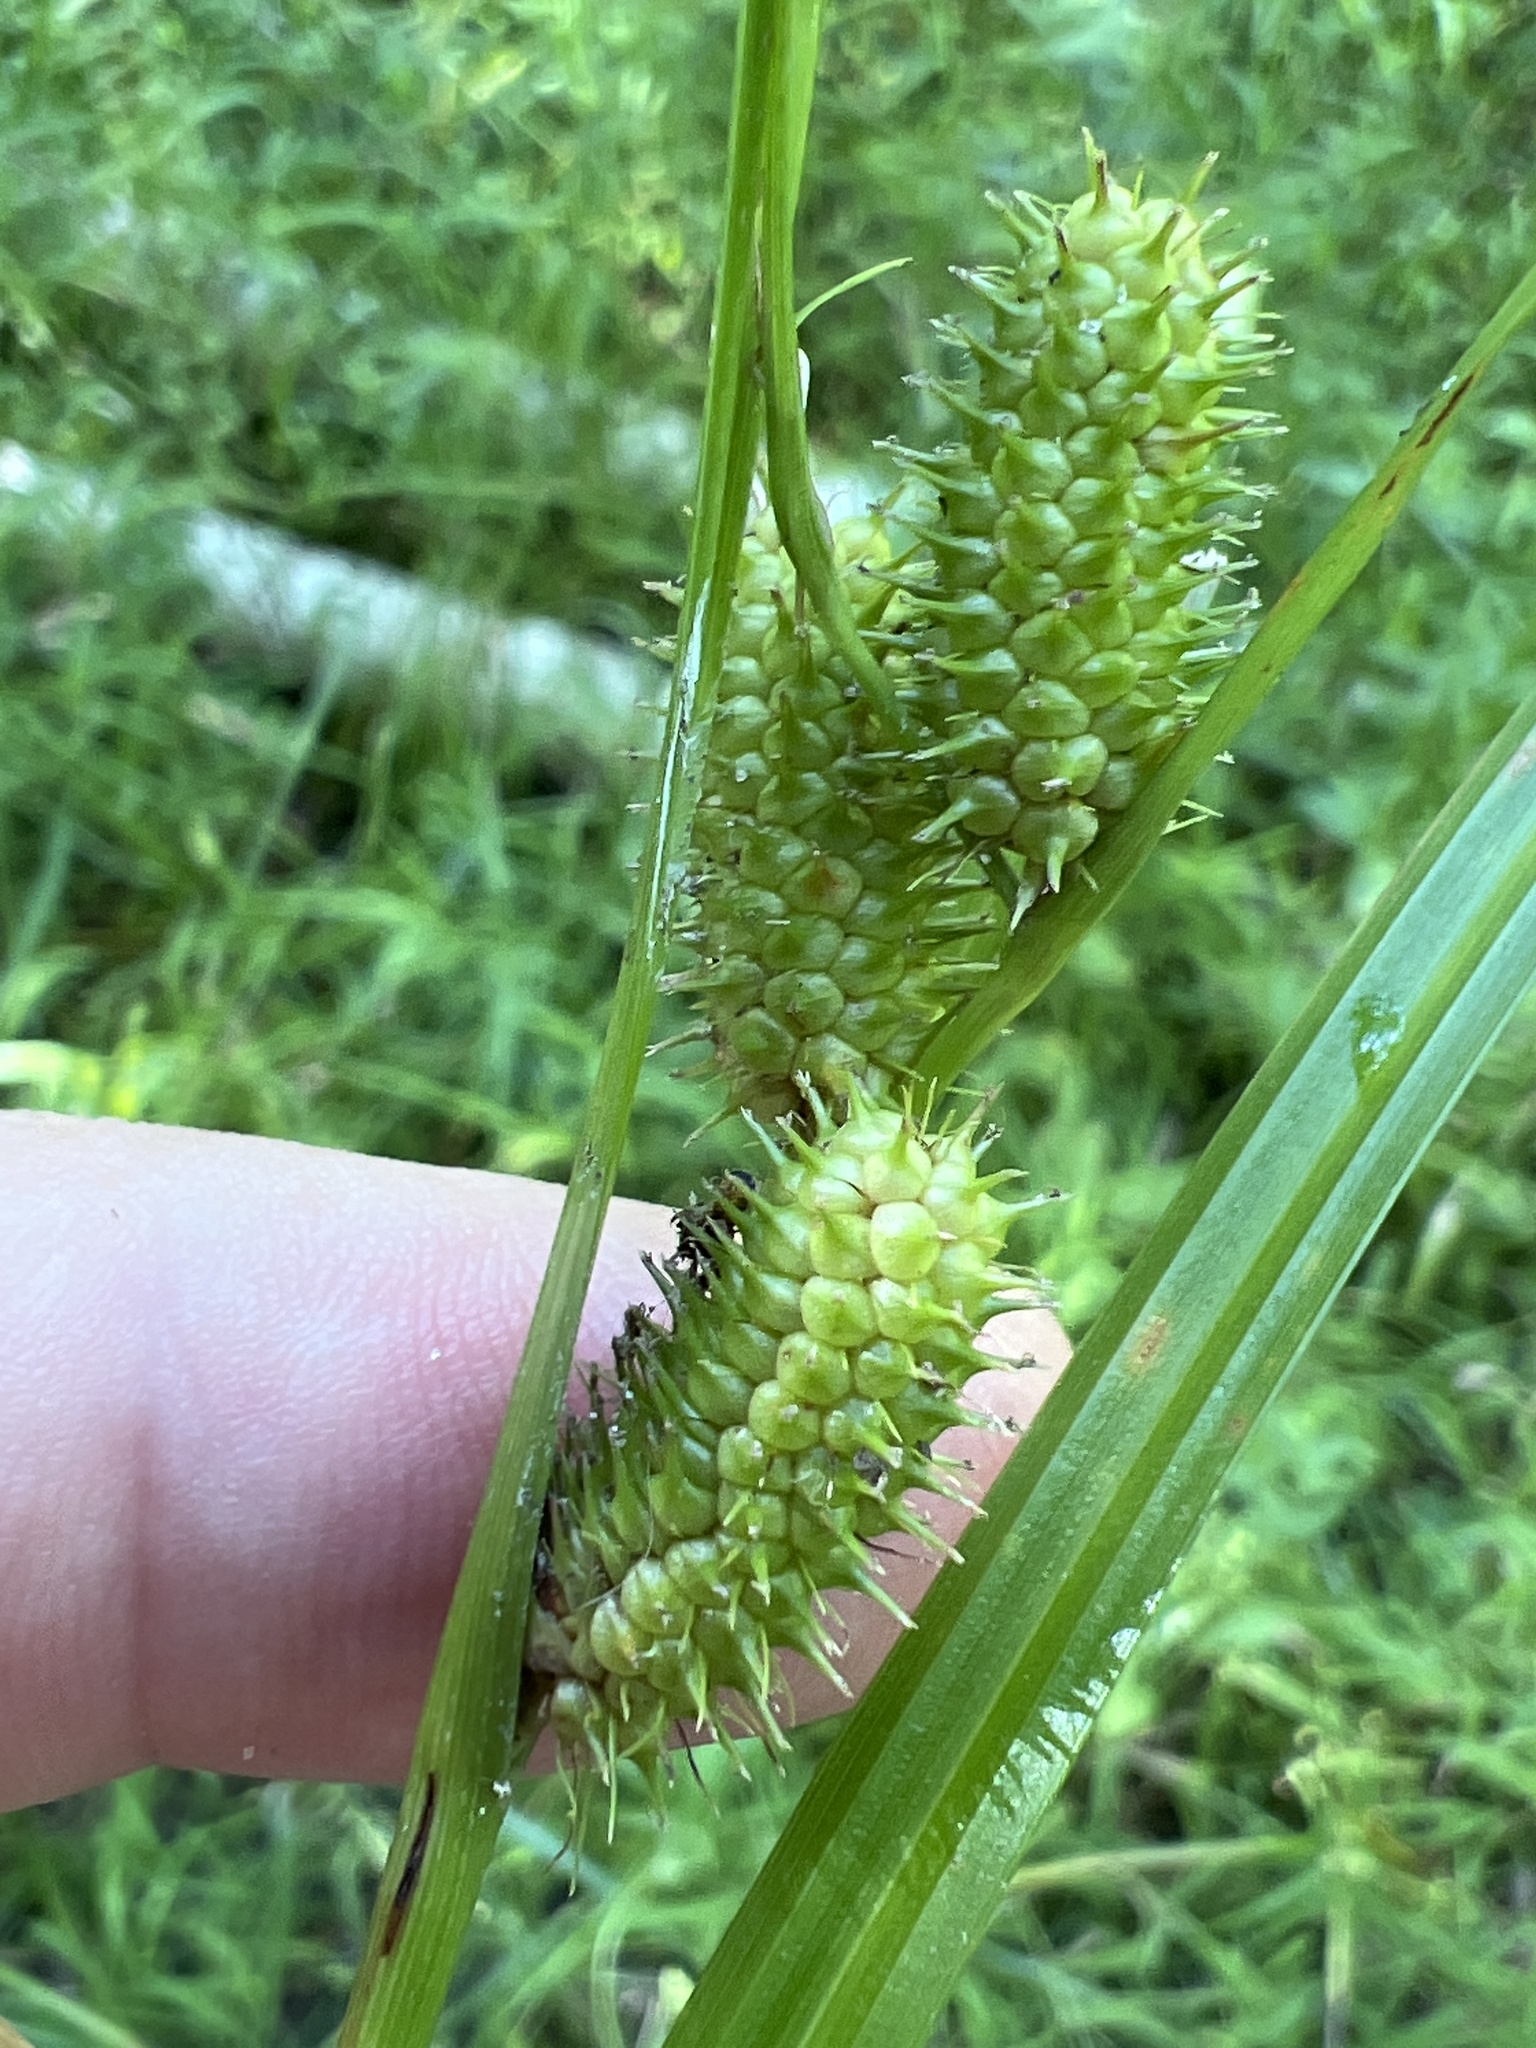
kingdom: Plantae
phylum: Tracheophyta
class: Liliopsida
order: Poales
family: Cyperaceae
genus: Carex
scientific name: Carex aureolensis
